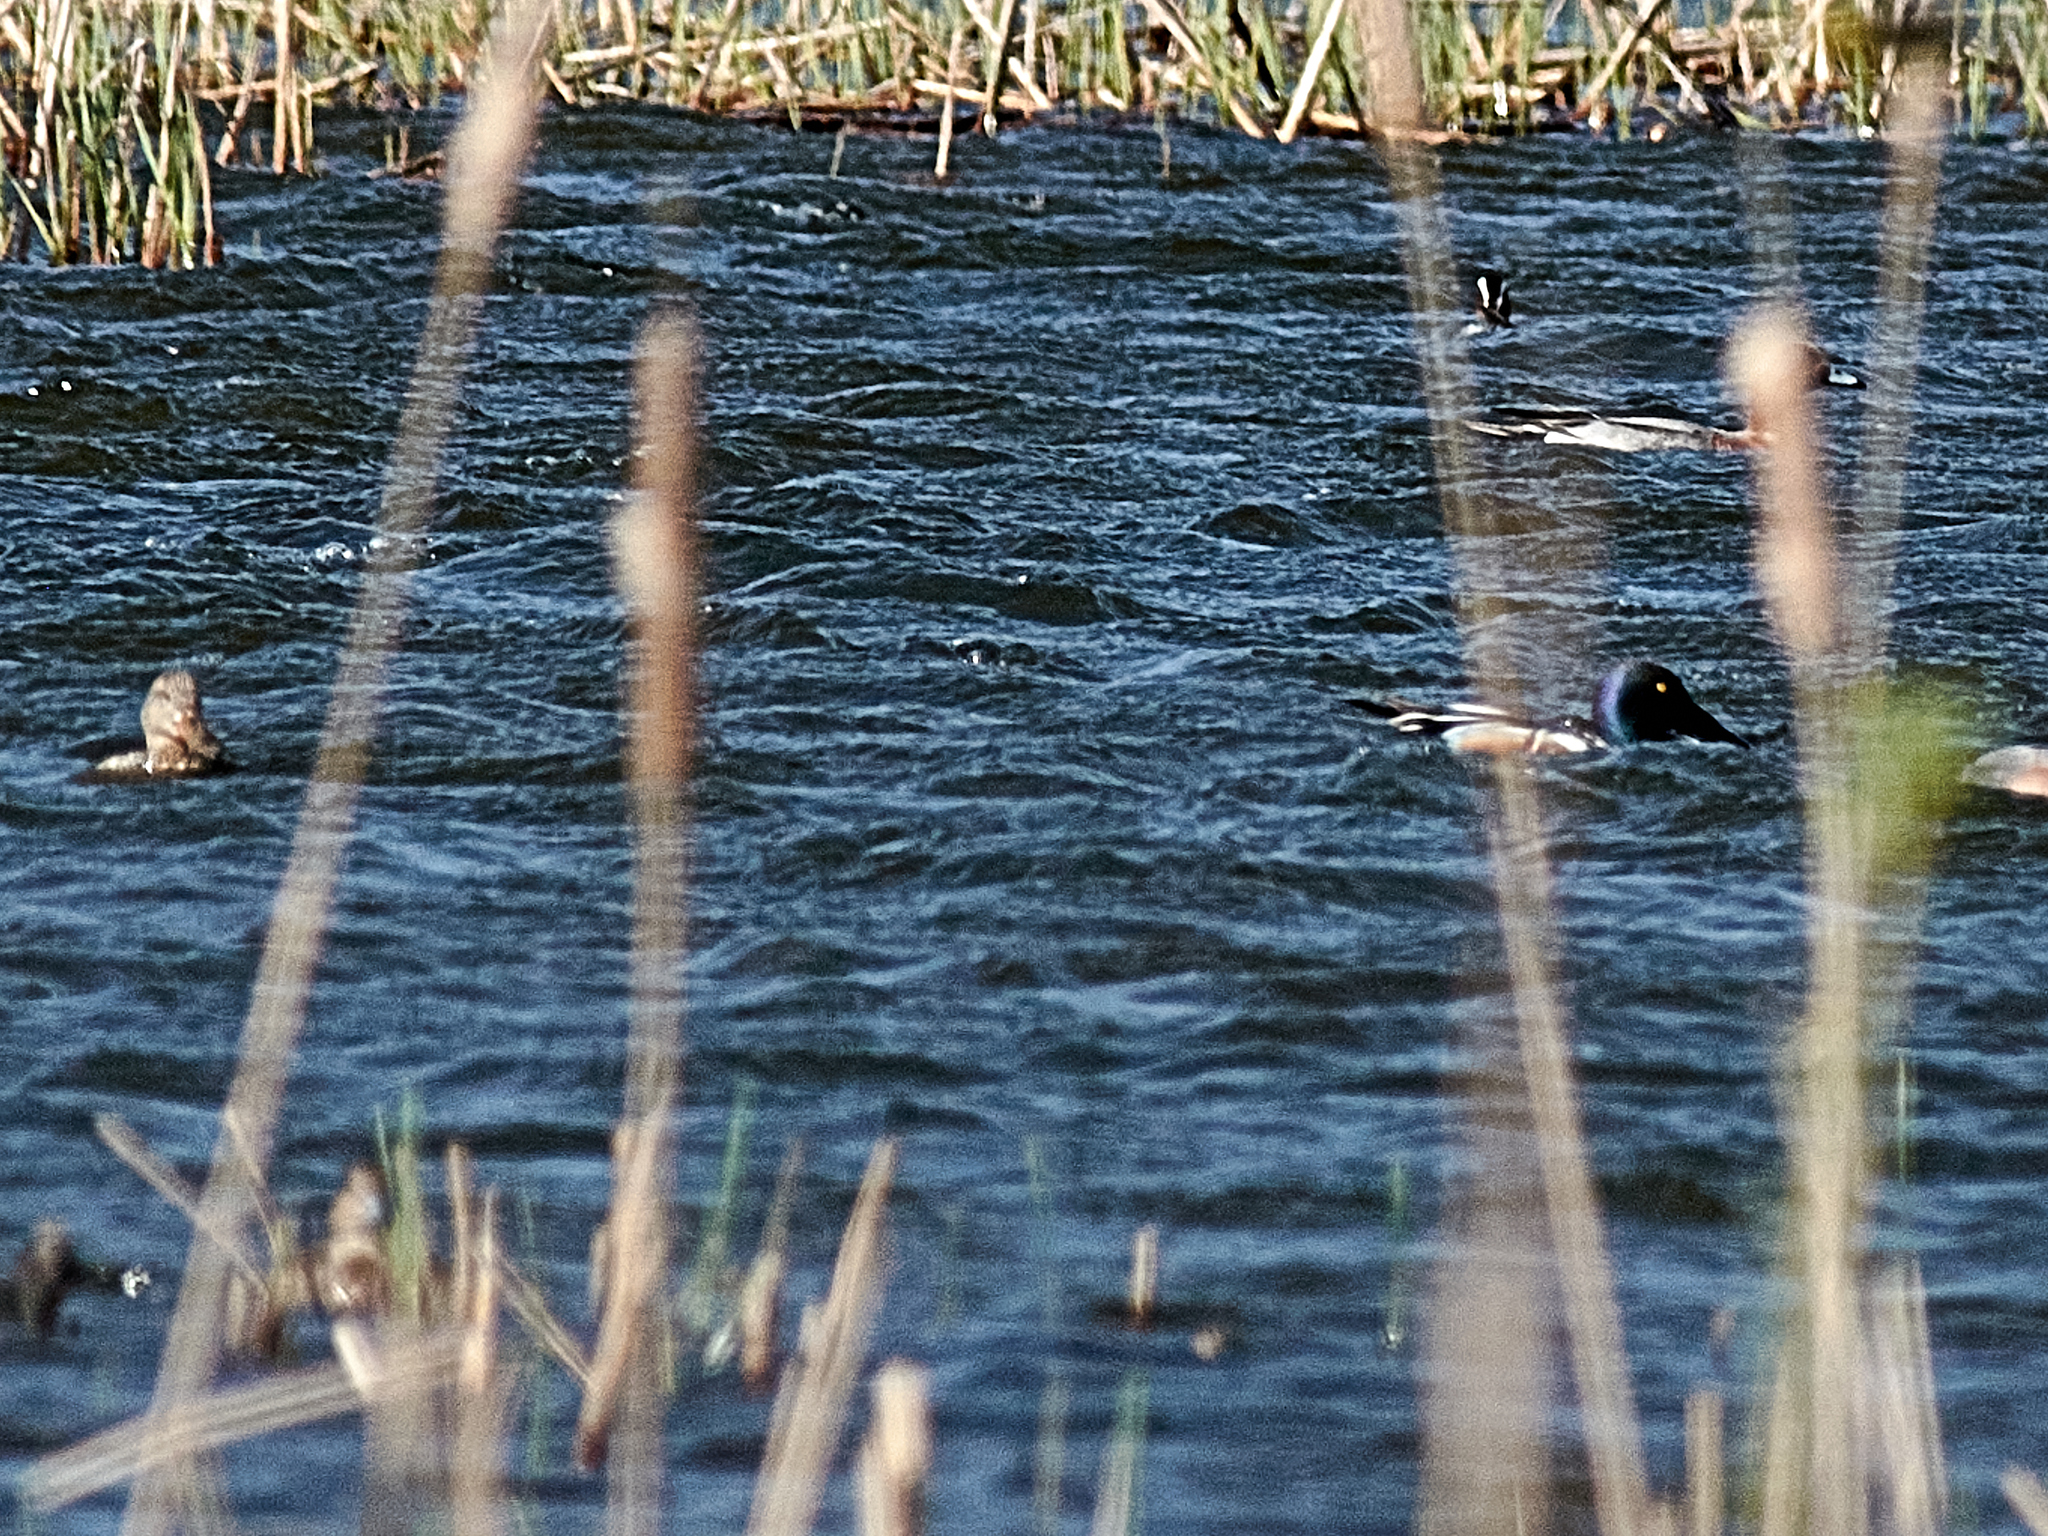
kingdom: Animalia
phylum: Chordata
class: Aves
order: Anseriformes
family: Anatidae
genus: Spatula
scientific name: Spatula clypeata
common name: Northern shoveler
